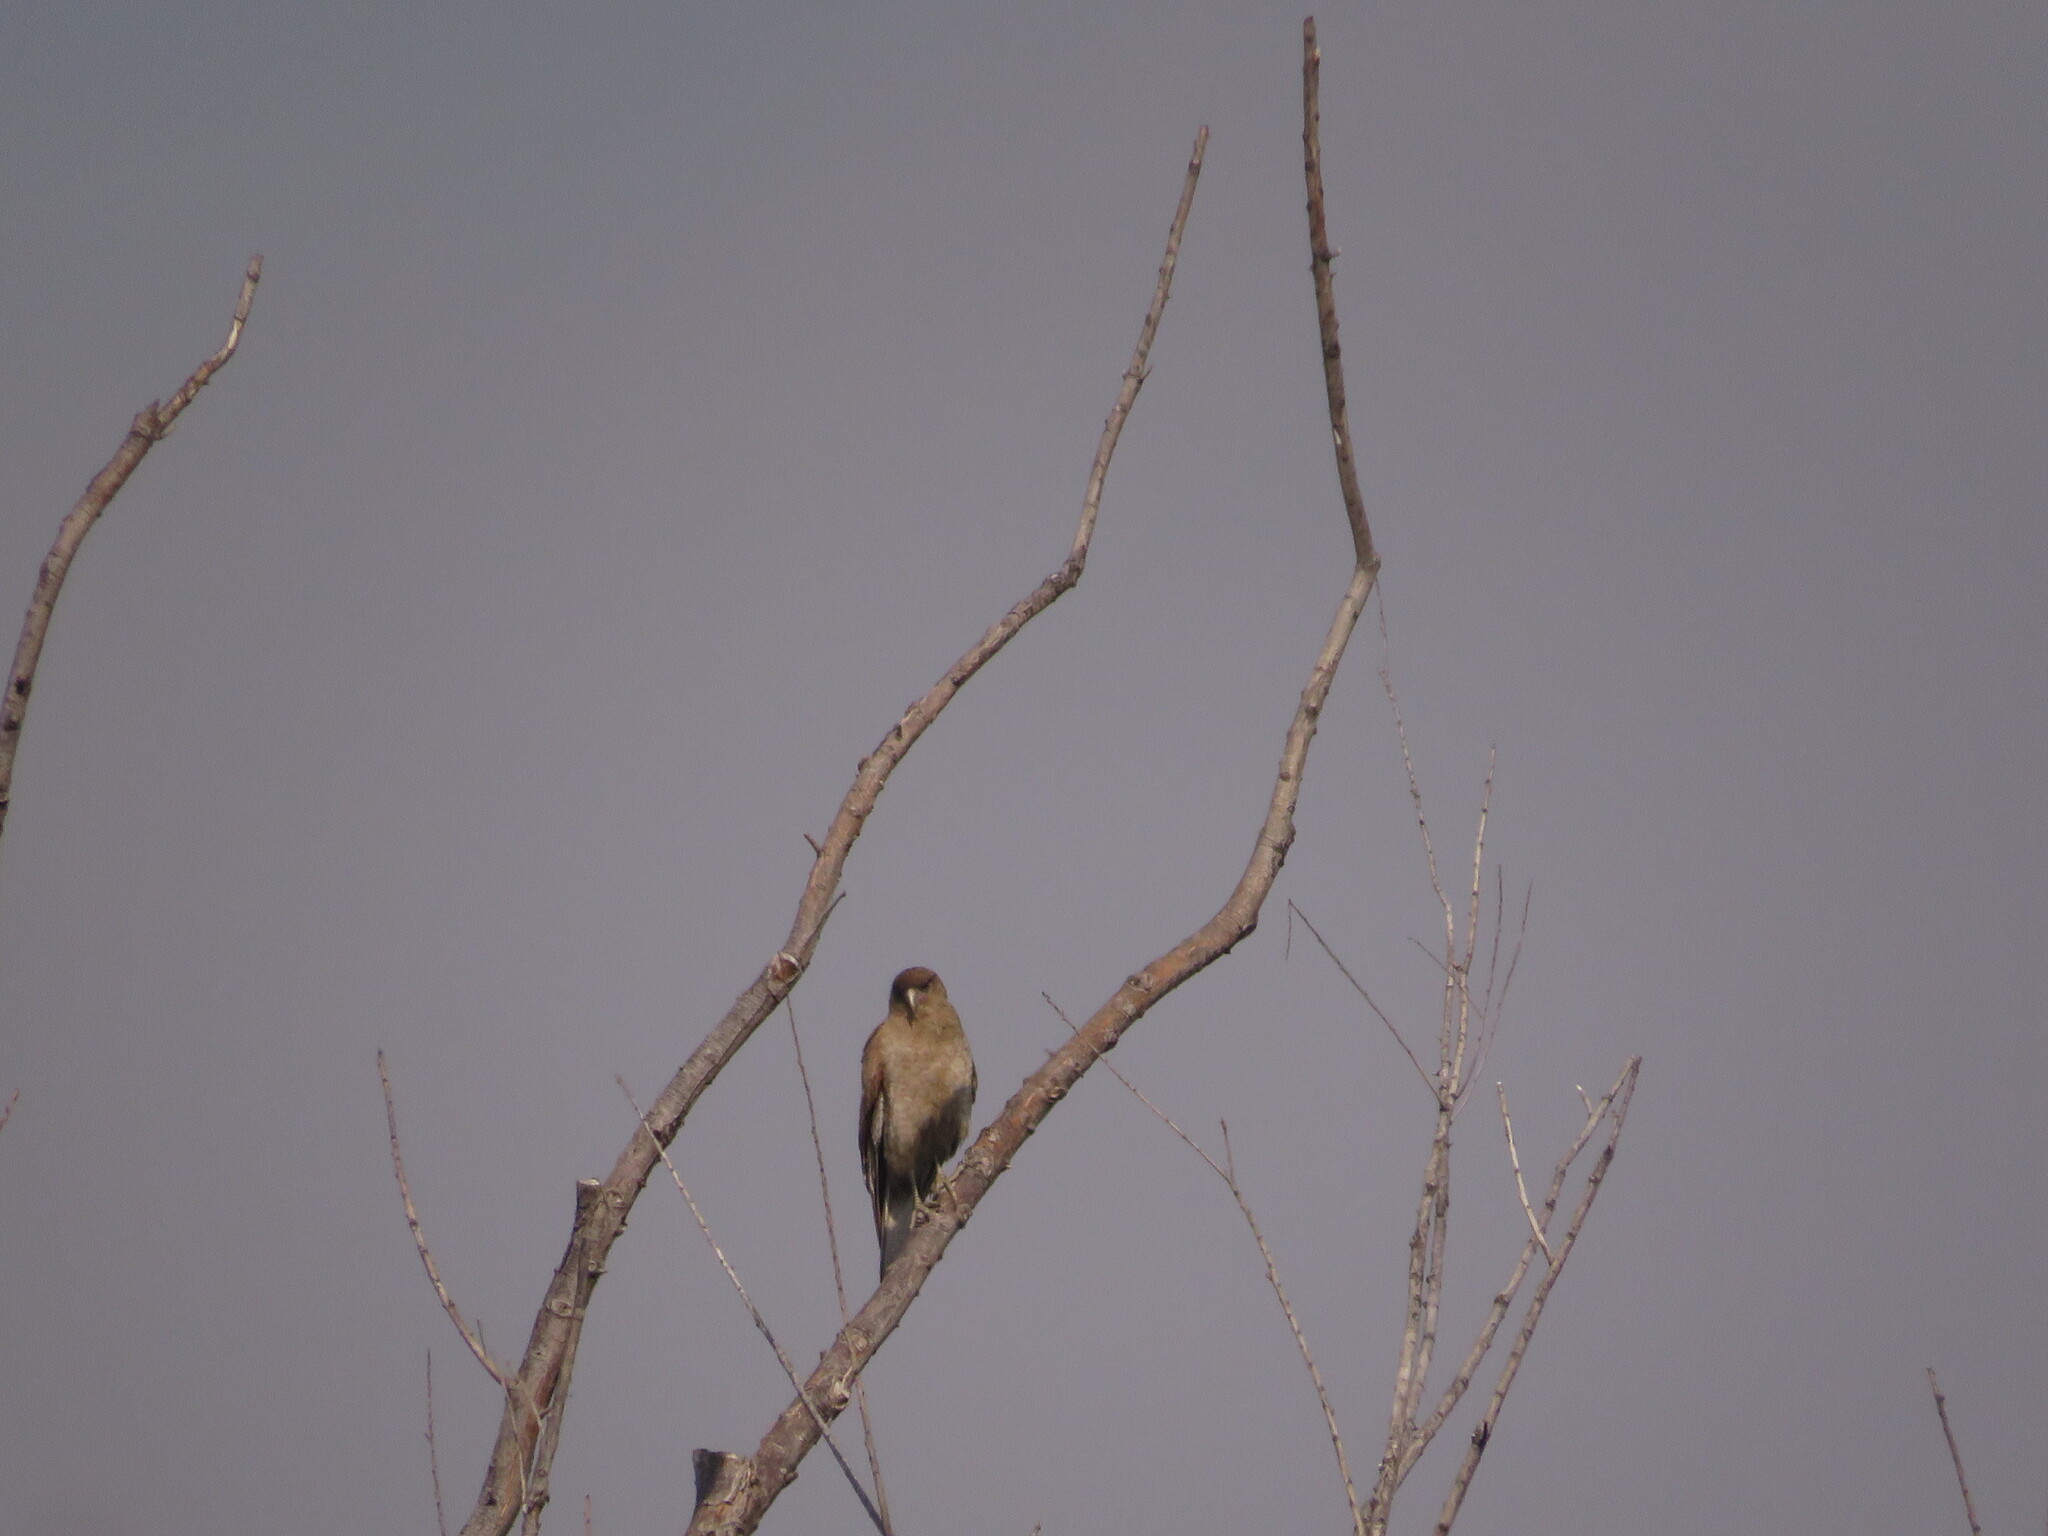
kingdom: Animalia
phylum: Chordata
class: Aves
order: Falconiformes
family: Falconidae
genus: Daptrius
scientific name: Daptrius
